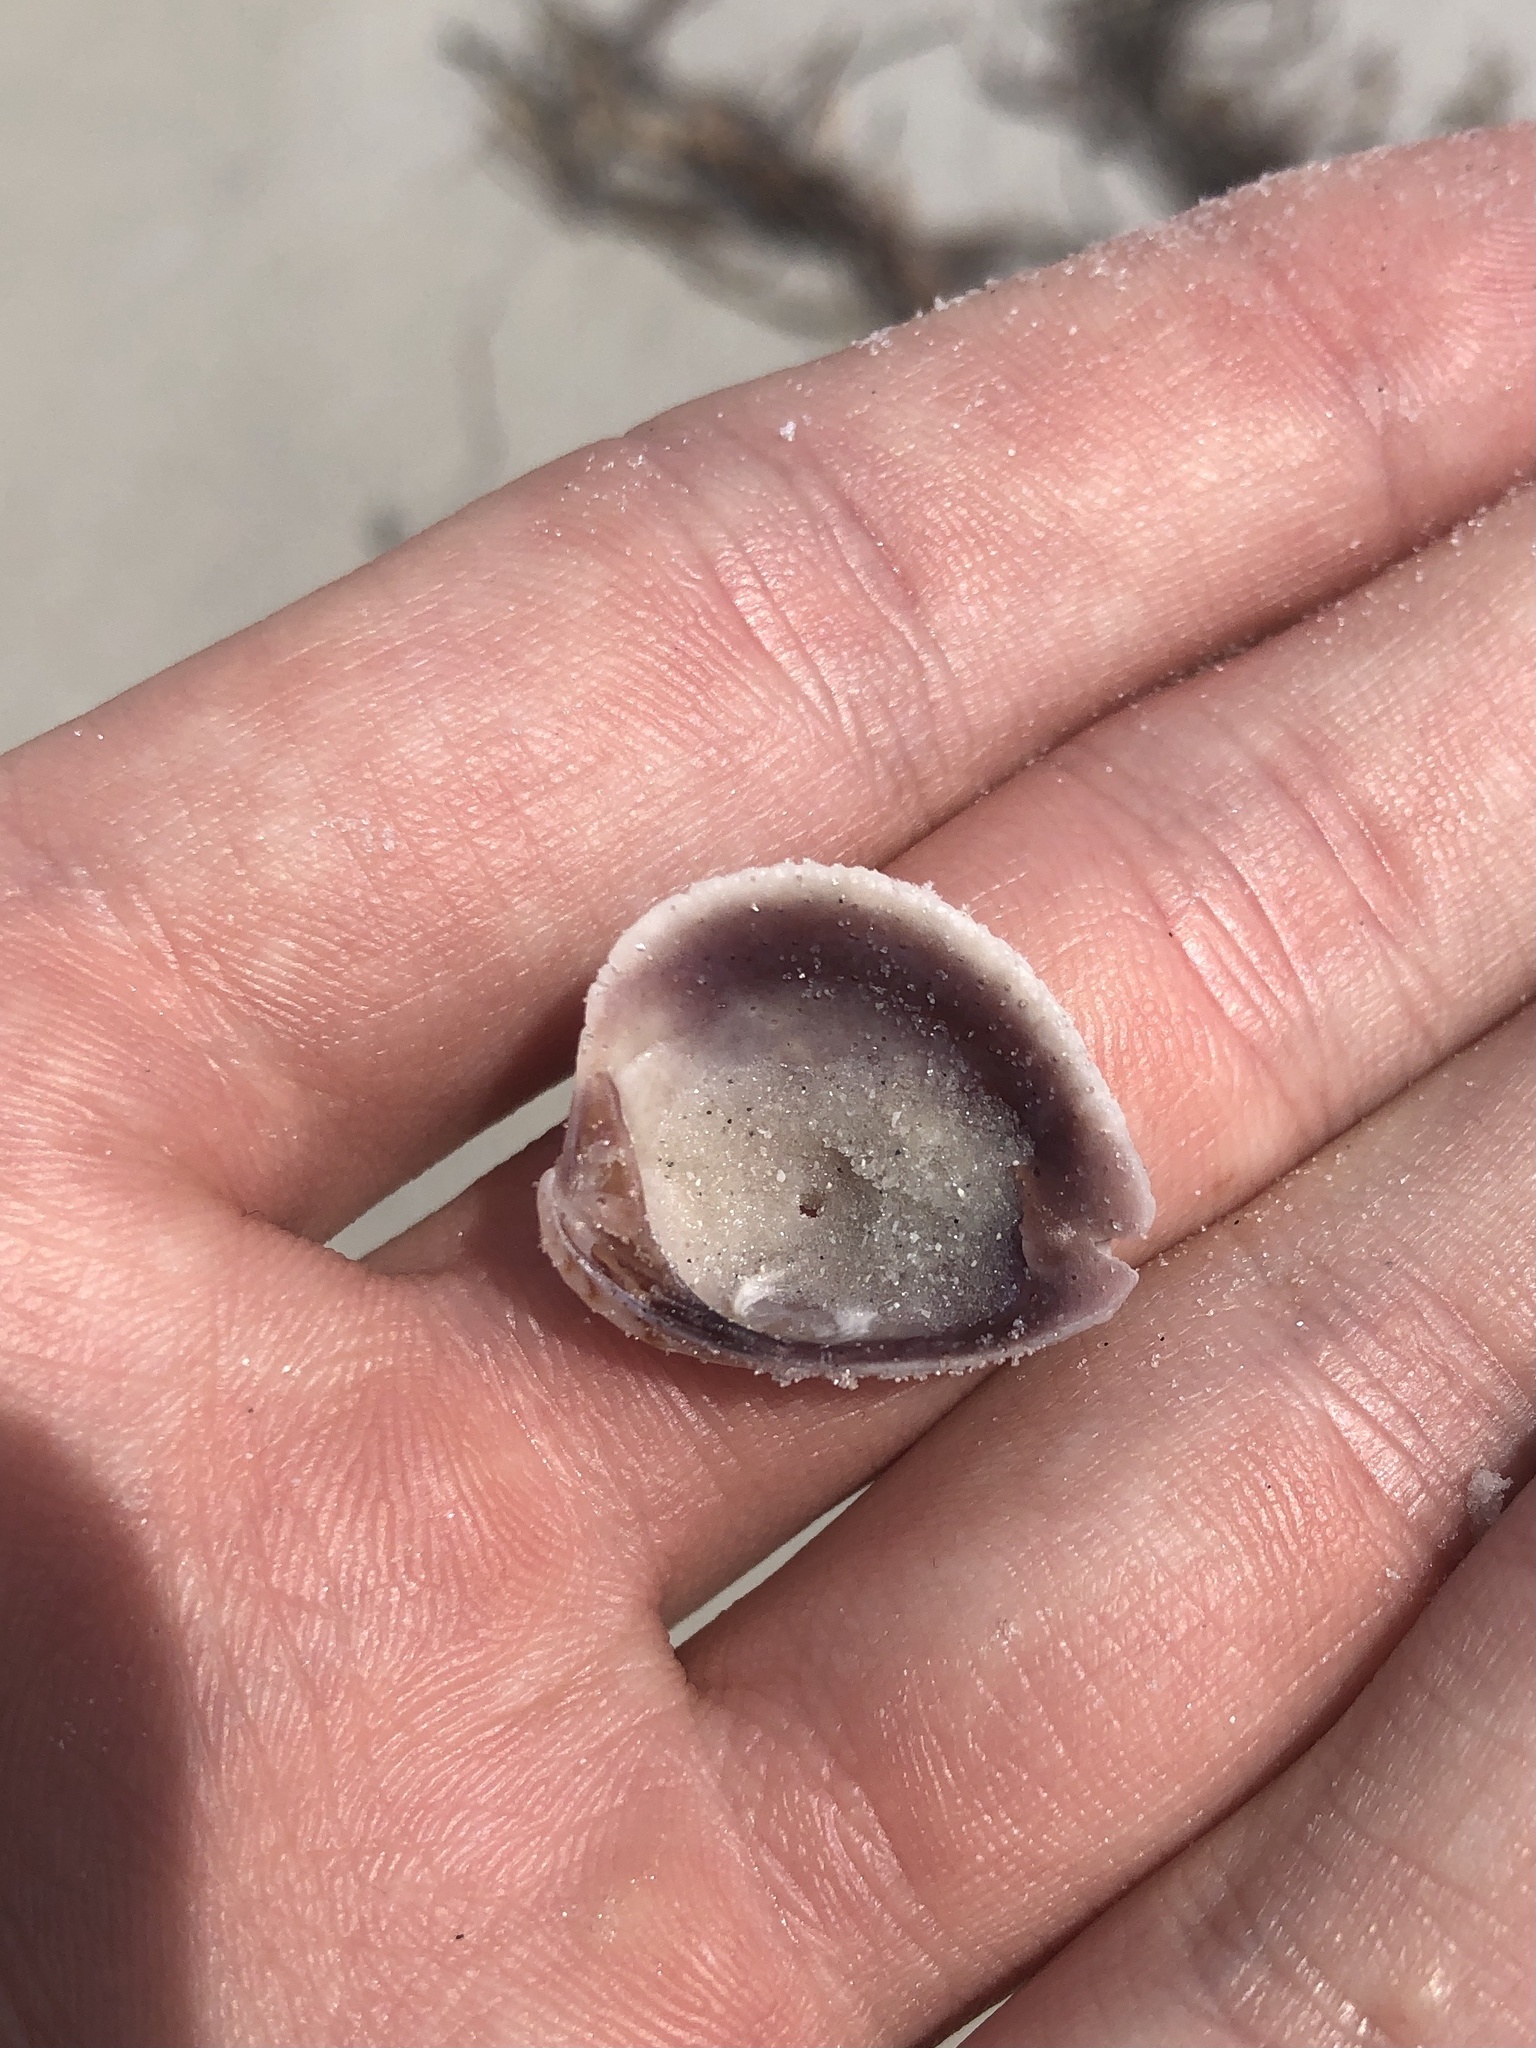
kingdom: Animalia
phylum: Mollusca
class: Bivalvia
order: Venerida
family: Veneridae
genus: Chione
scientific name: Chione elevata
